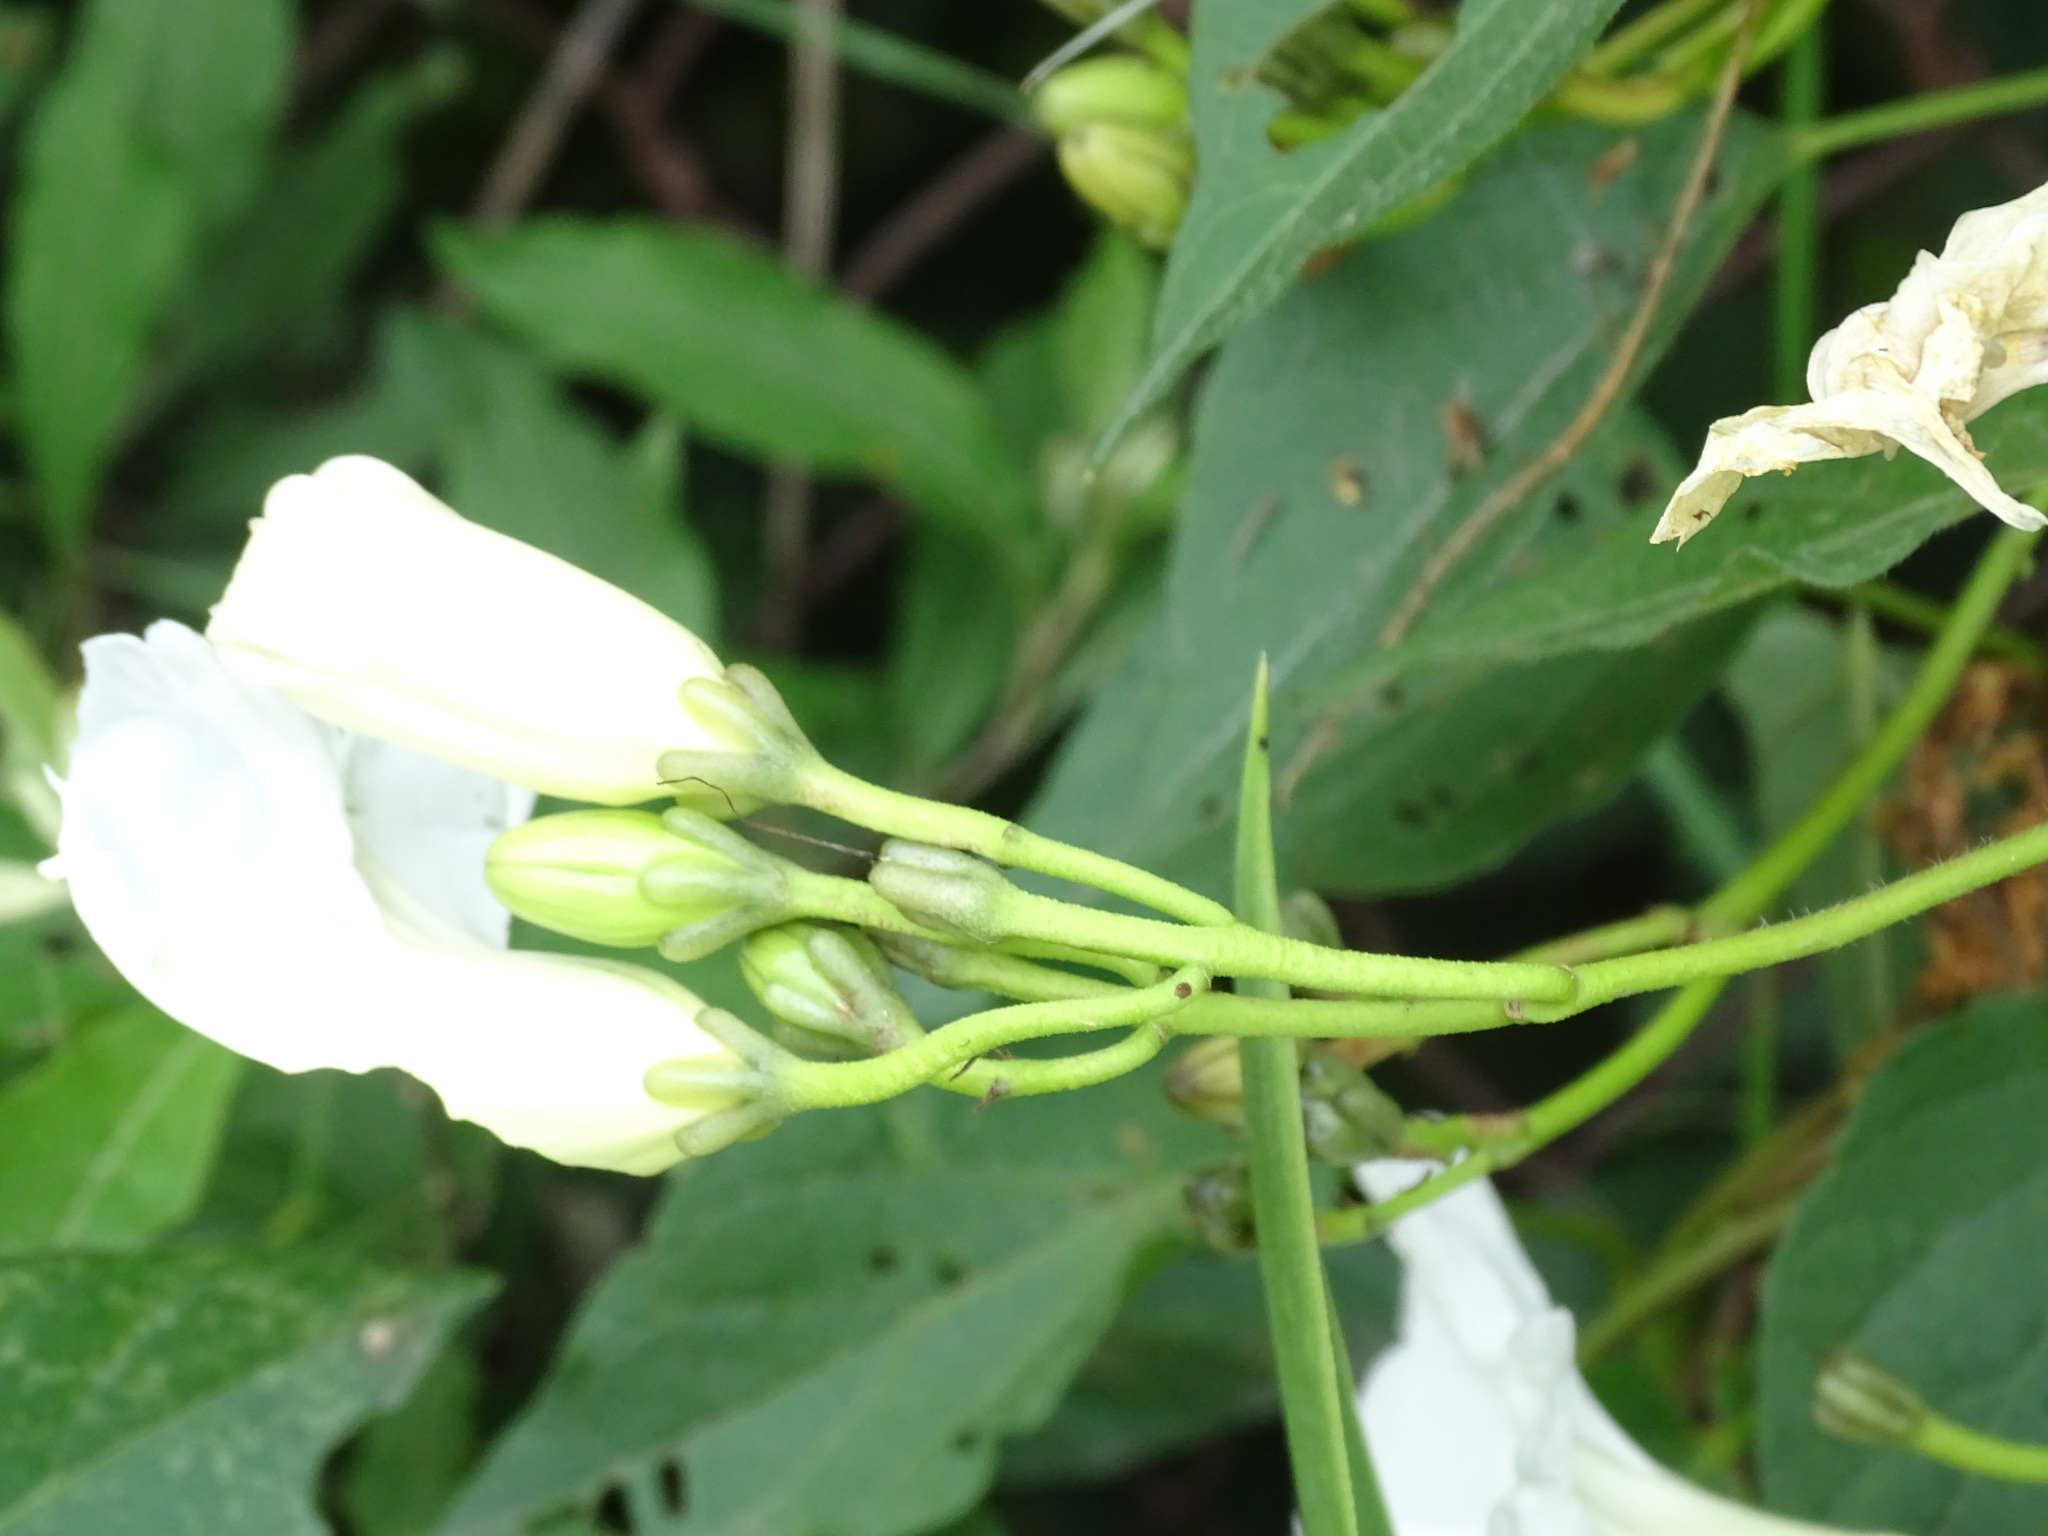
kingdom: Plantae
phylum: Tracheophyta
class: Magnoliopsida
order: Solanales
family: Convolvulaceae
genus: Ipomoea
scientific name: Ipomoea proxima
